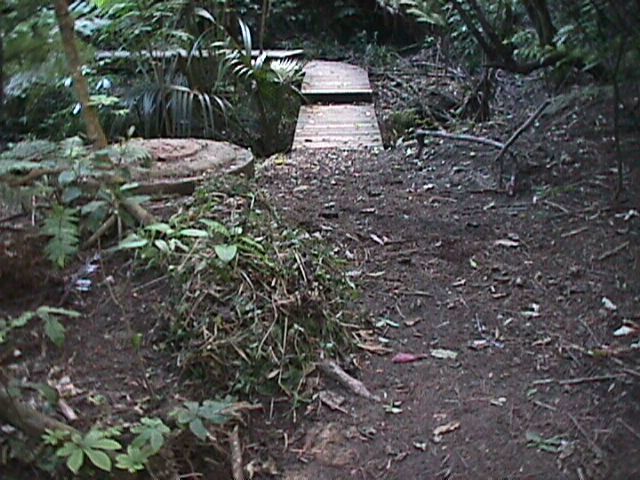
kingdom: Plantae
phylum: Tracheophyta
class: Liliopsida
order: Arecales
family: Arecaceae
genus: Rhopalostylis
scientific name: Rhopalostylis sapida
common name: Feather-duster palm
